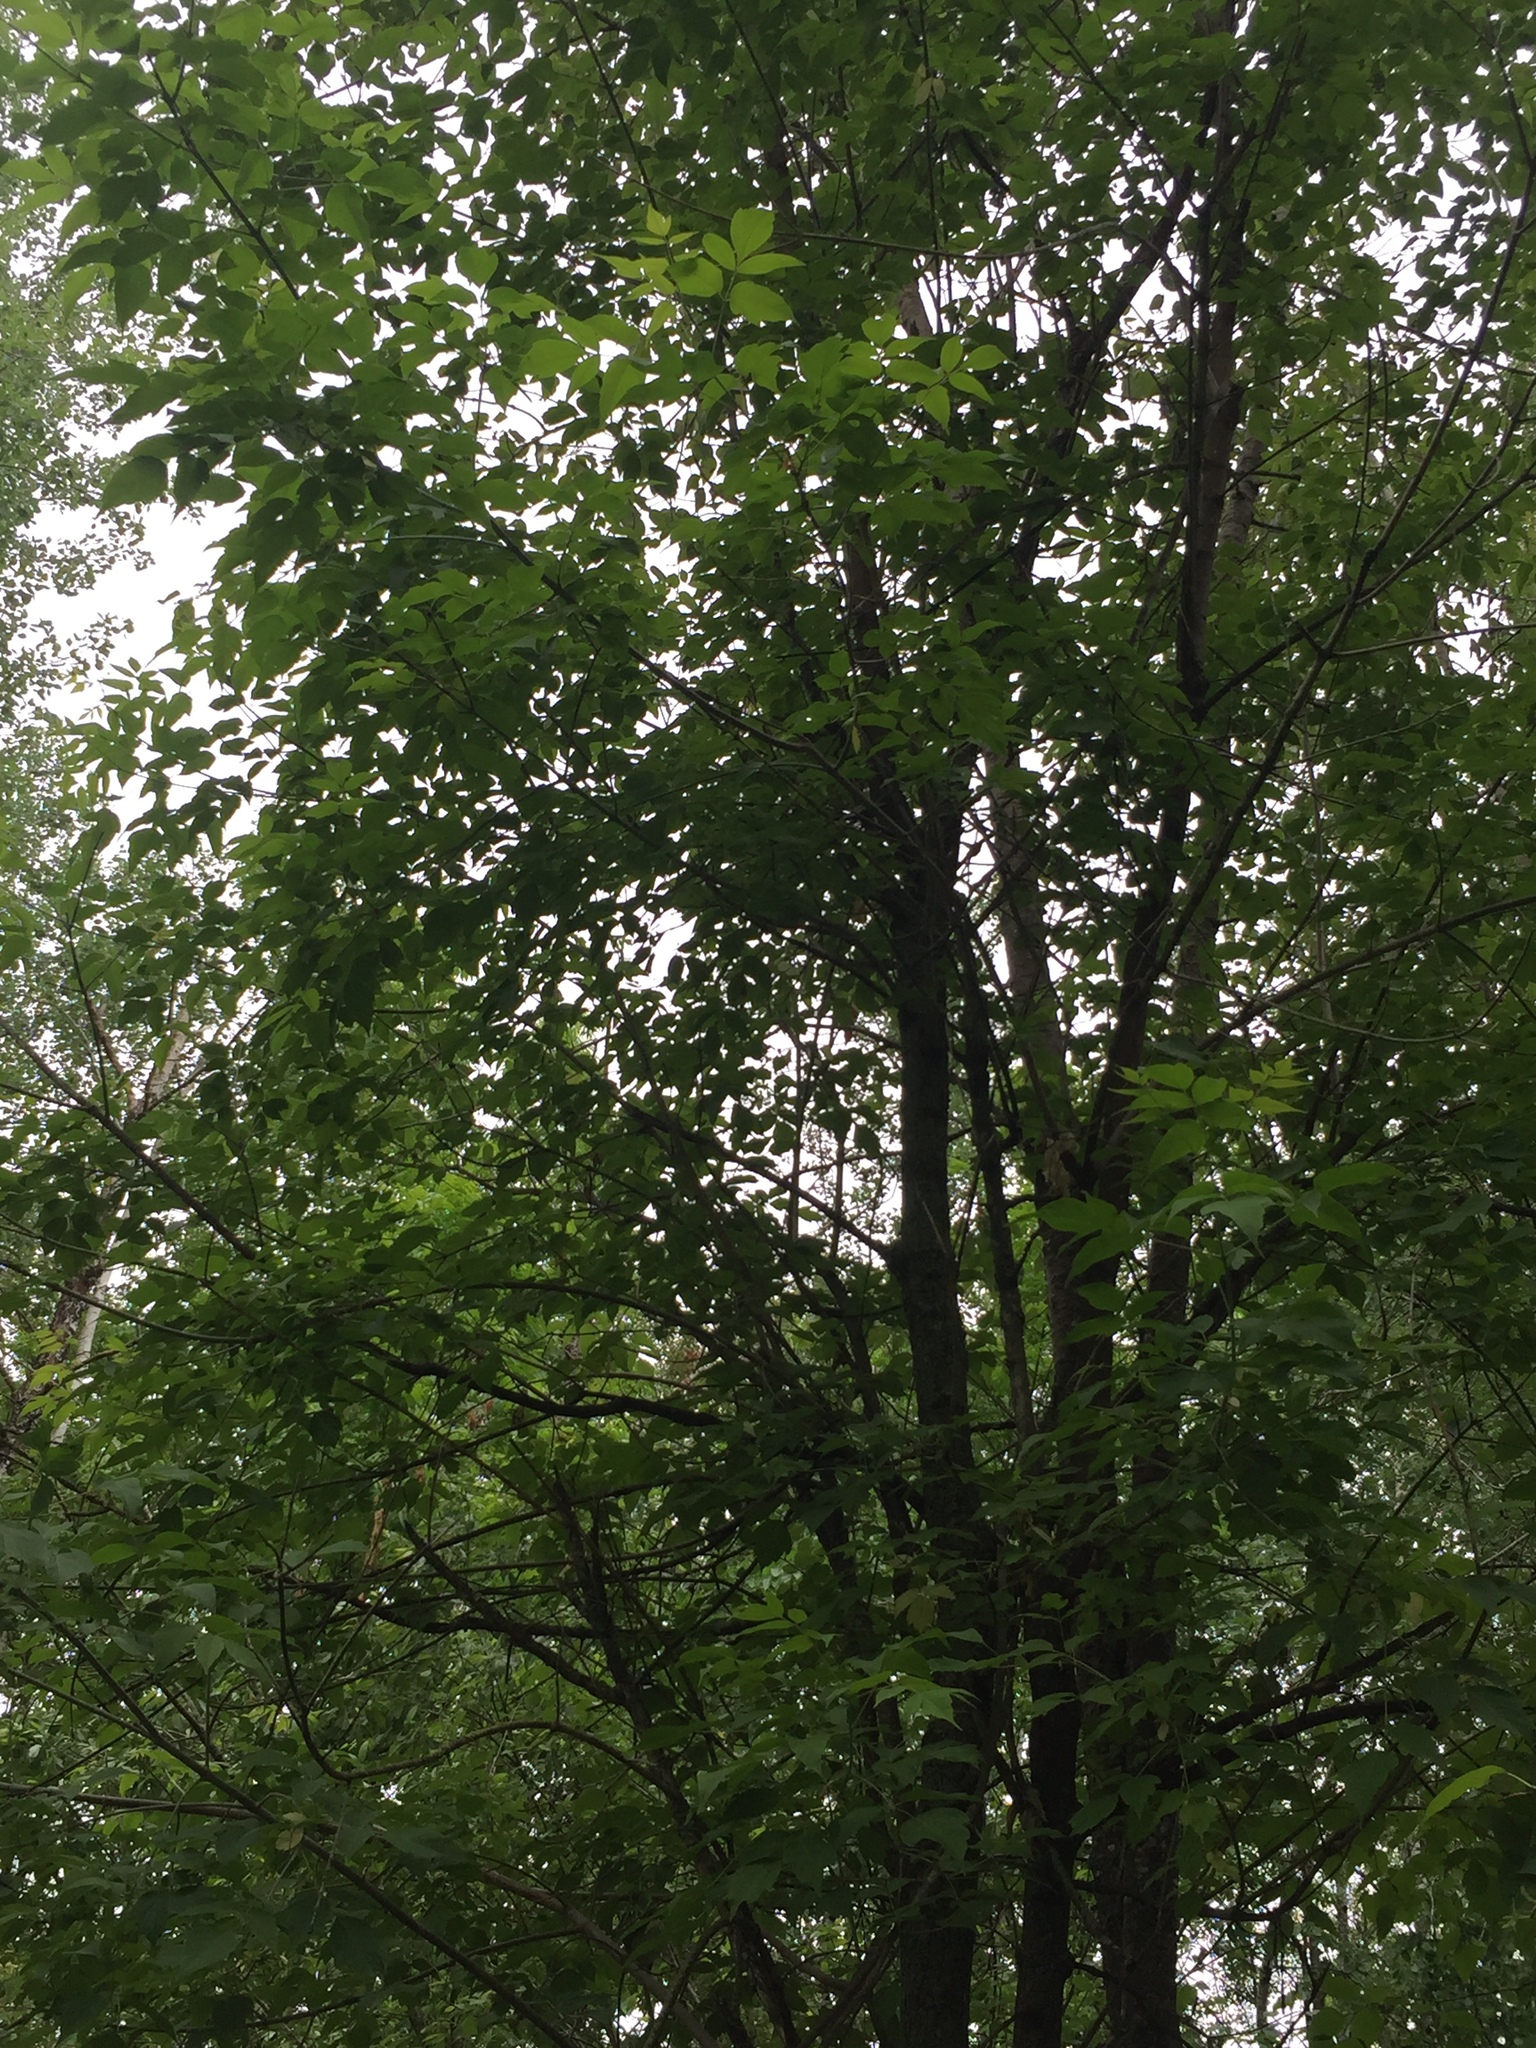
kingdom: Plantae
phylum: Tracheophyta
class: Magnoliopsida
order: Sapindales
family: Sapindaceae
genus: Acer
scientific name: Acer negundo
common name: Ashleaf maple
